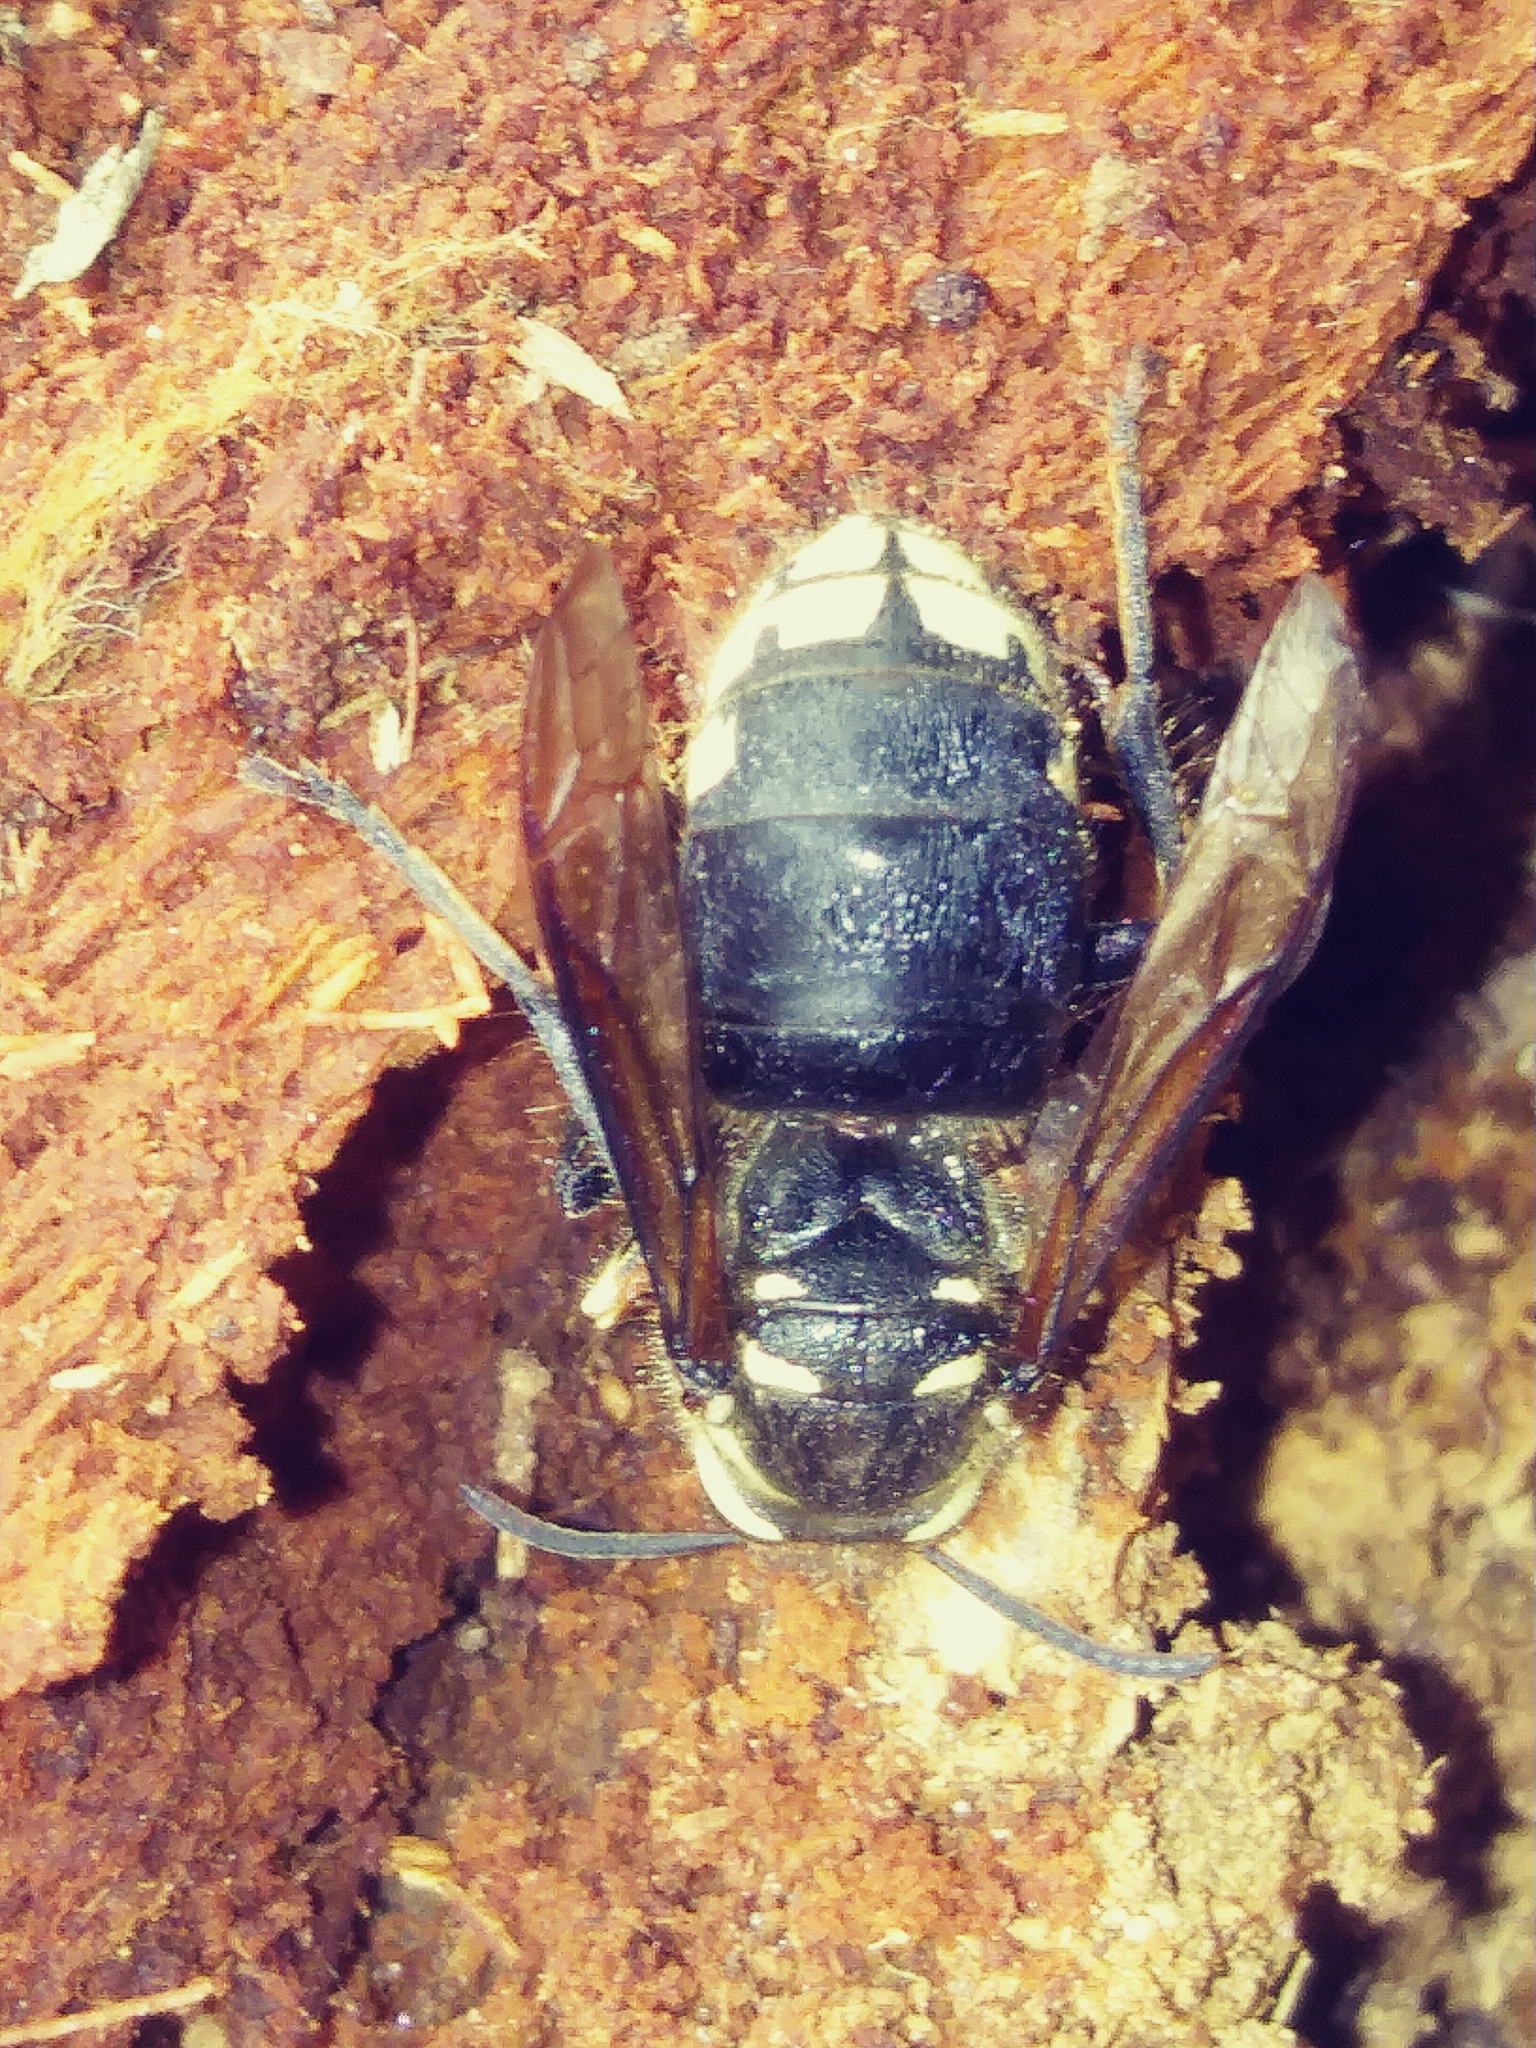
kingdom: Animalia
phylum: Arthropoda
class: Insecta
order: Hymenoptera
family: Vespidae
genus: Dolichovespula
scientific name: Dolichovespula maculata
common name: Bald-faced hornet
